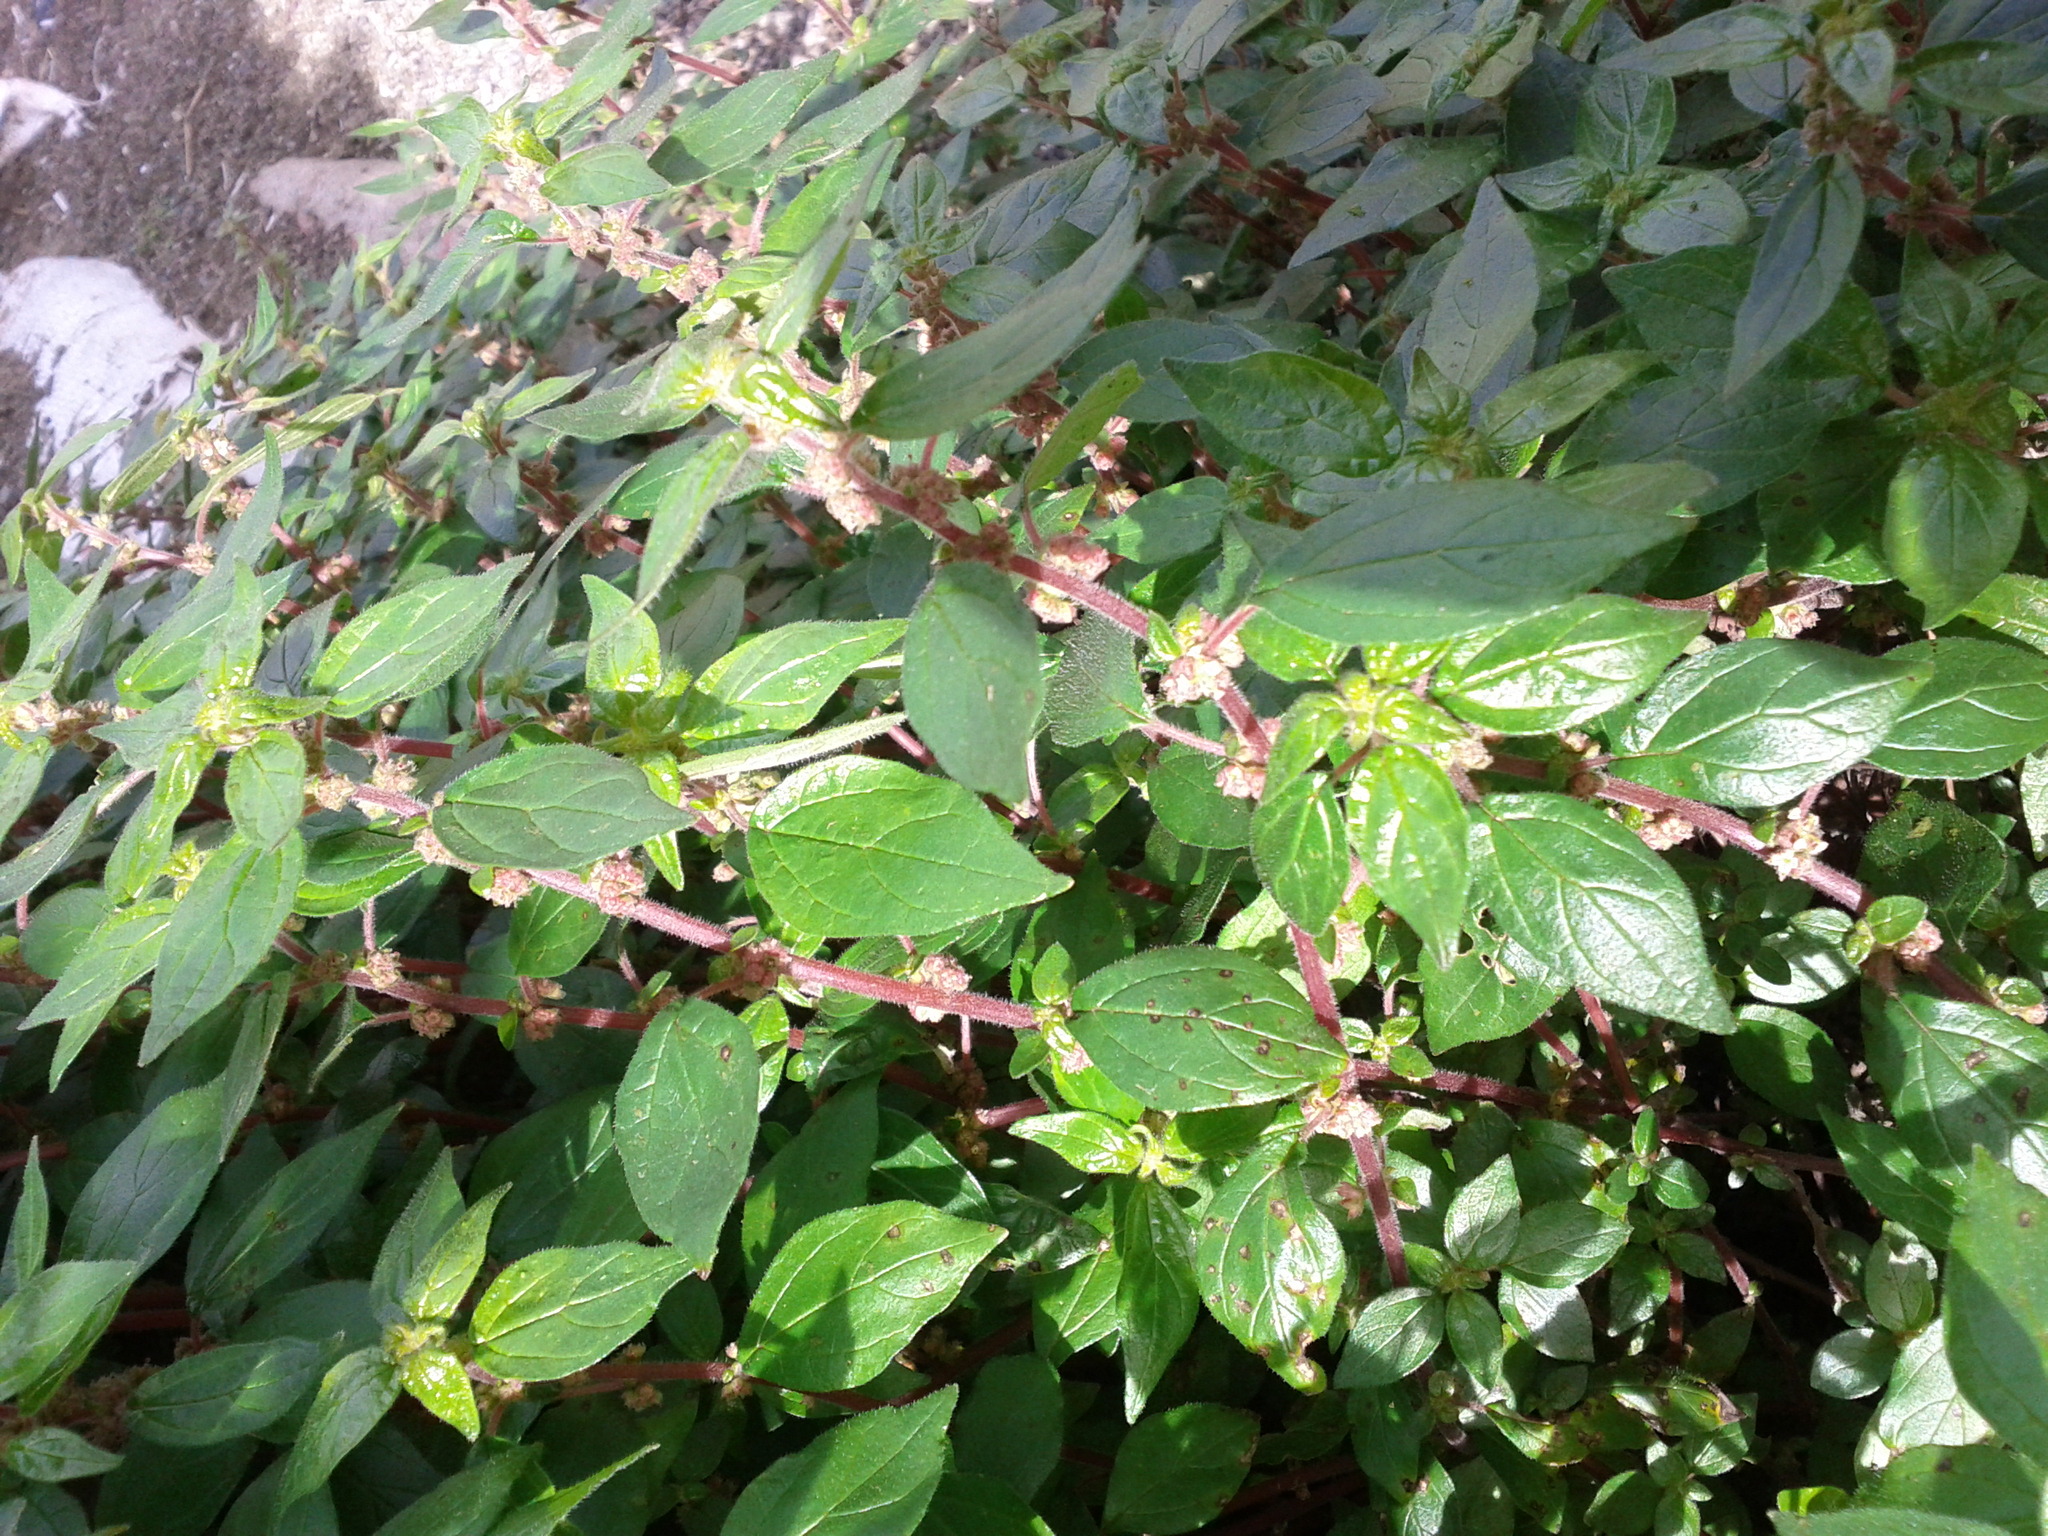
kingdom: Plantae
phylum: Tracheophyta
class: Magnoliopsida
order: Rosales
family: Urticaceae
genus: Parietaria
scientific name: Parietaria judaica
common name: Pellitory-of-the-wall
